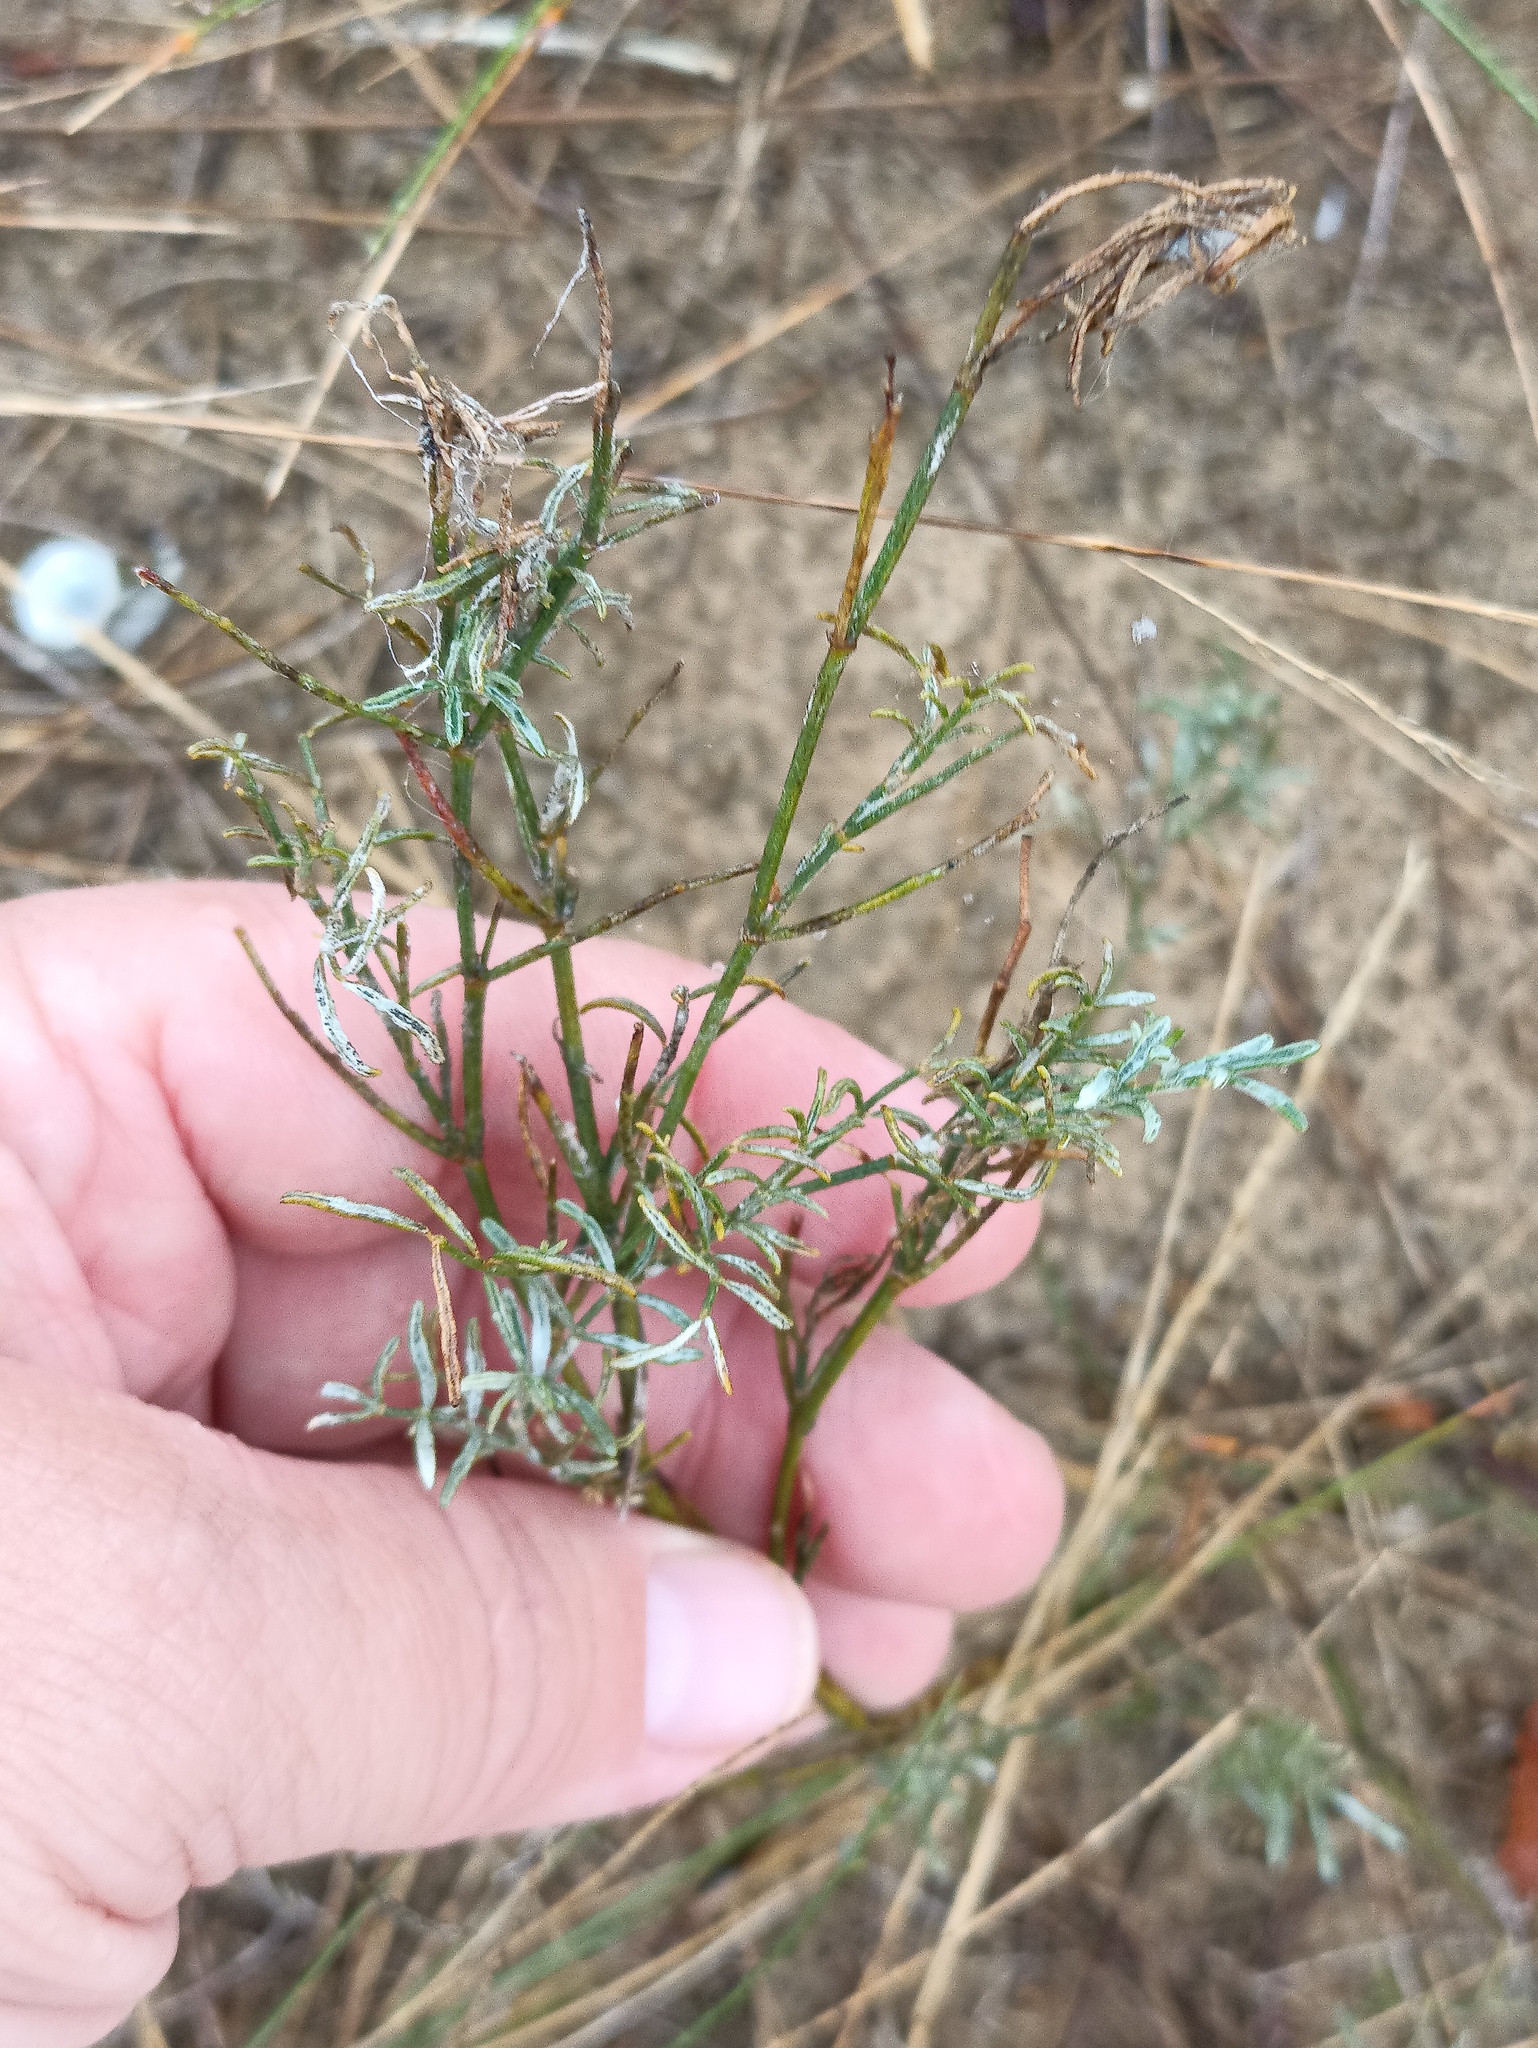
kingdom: Plantae
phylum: Tracheophyta
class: Magnoliopsida
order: Fabales
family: Fabaceae
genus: Genista
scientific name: Genista tinctoria
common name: Dyer's greenweed
